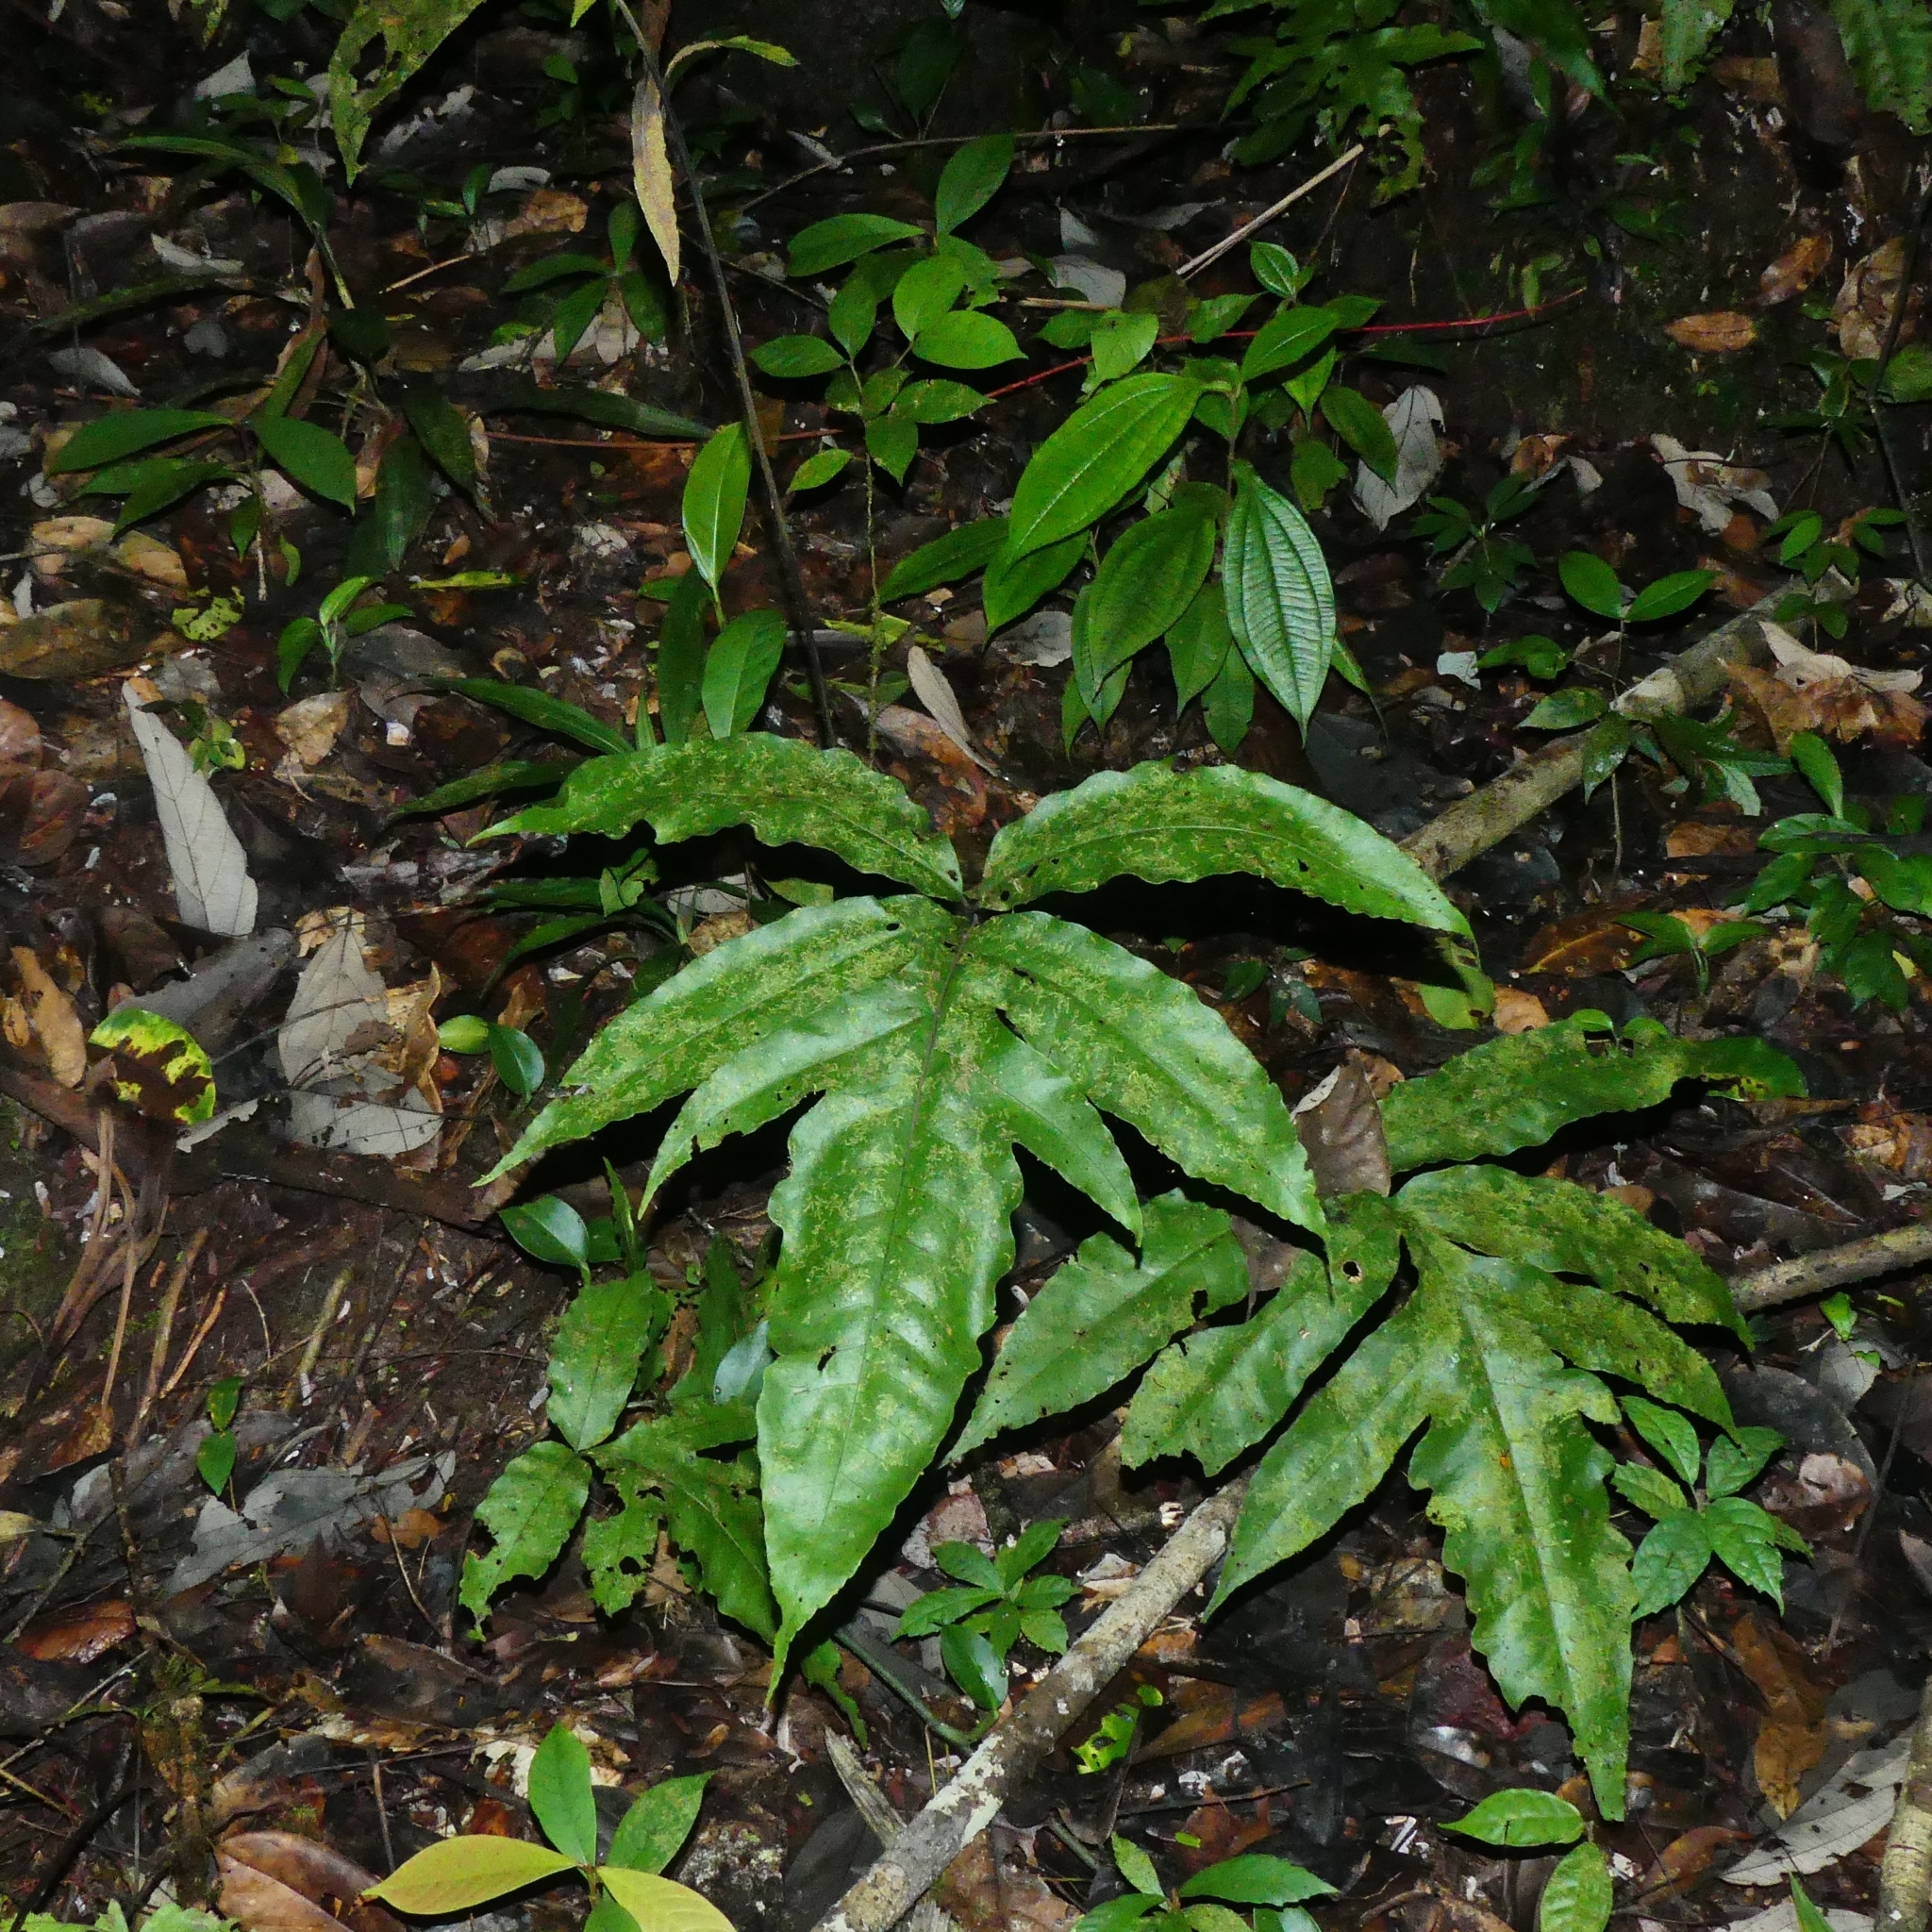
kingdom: Plantae
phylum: Tracheophyta
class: Polypodiopsida
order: Polypodiales
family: Dryopteridaceae
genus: Bolbitis
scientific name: Bolbitis semipinnatifida
